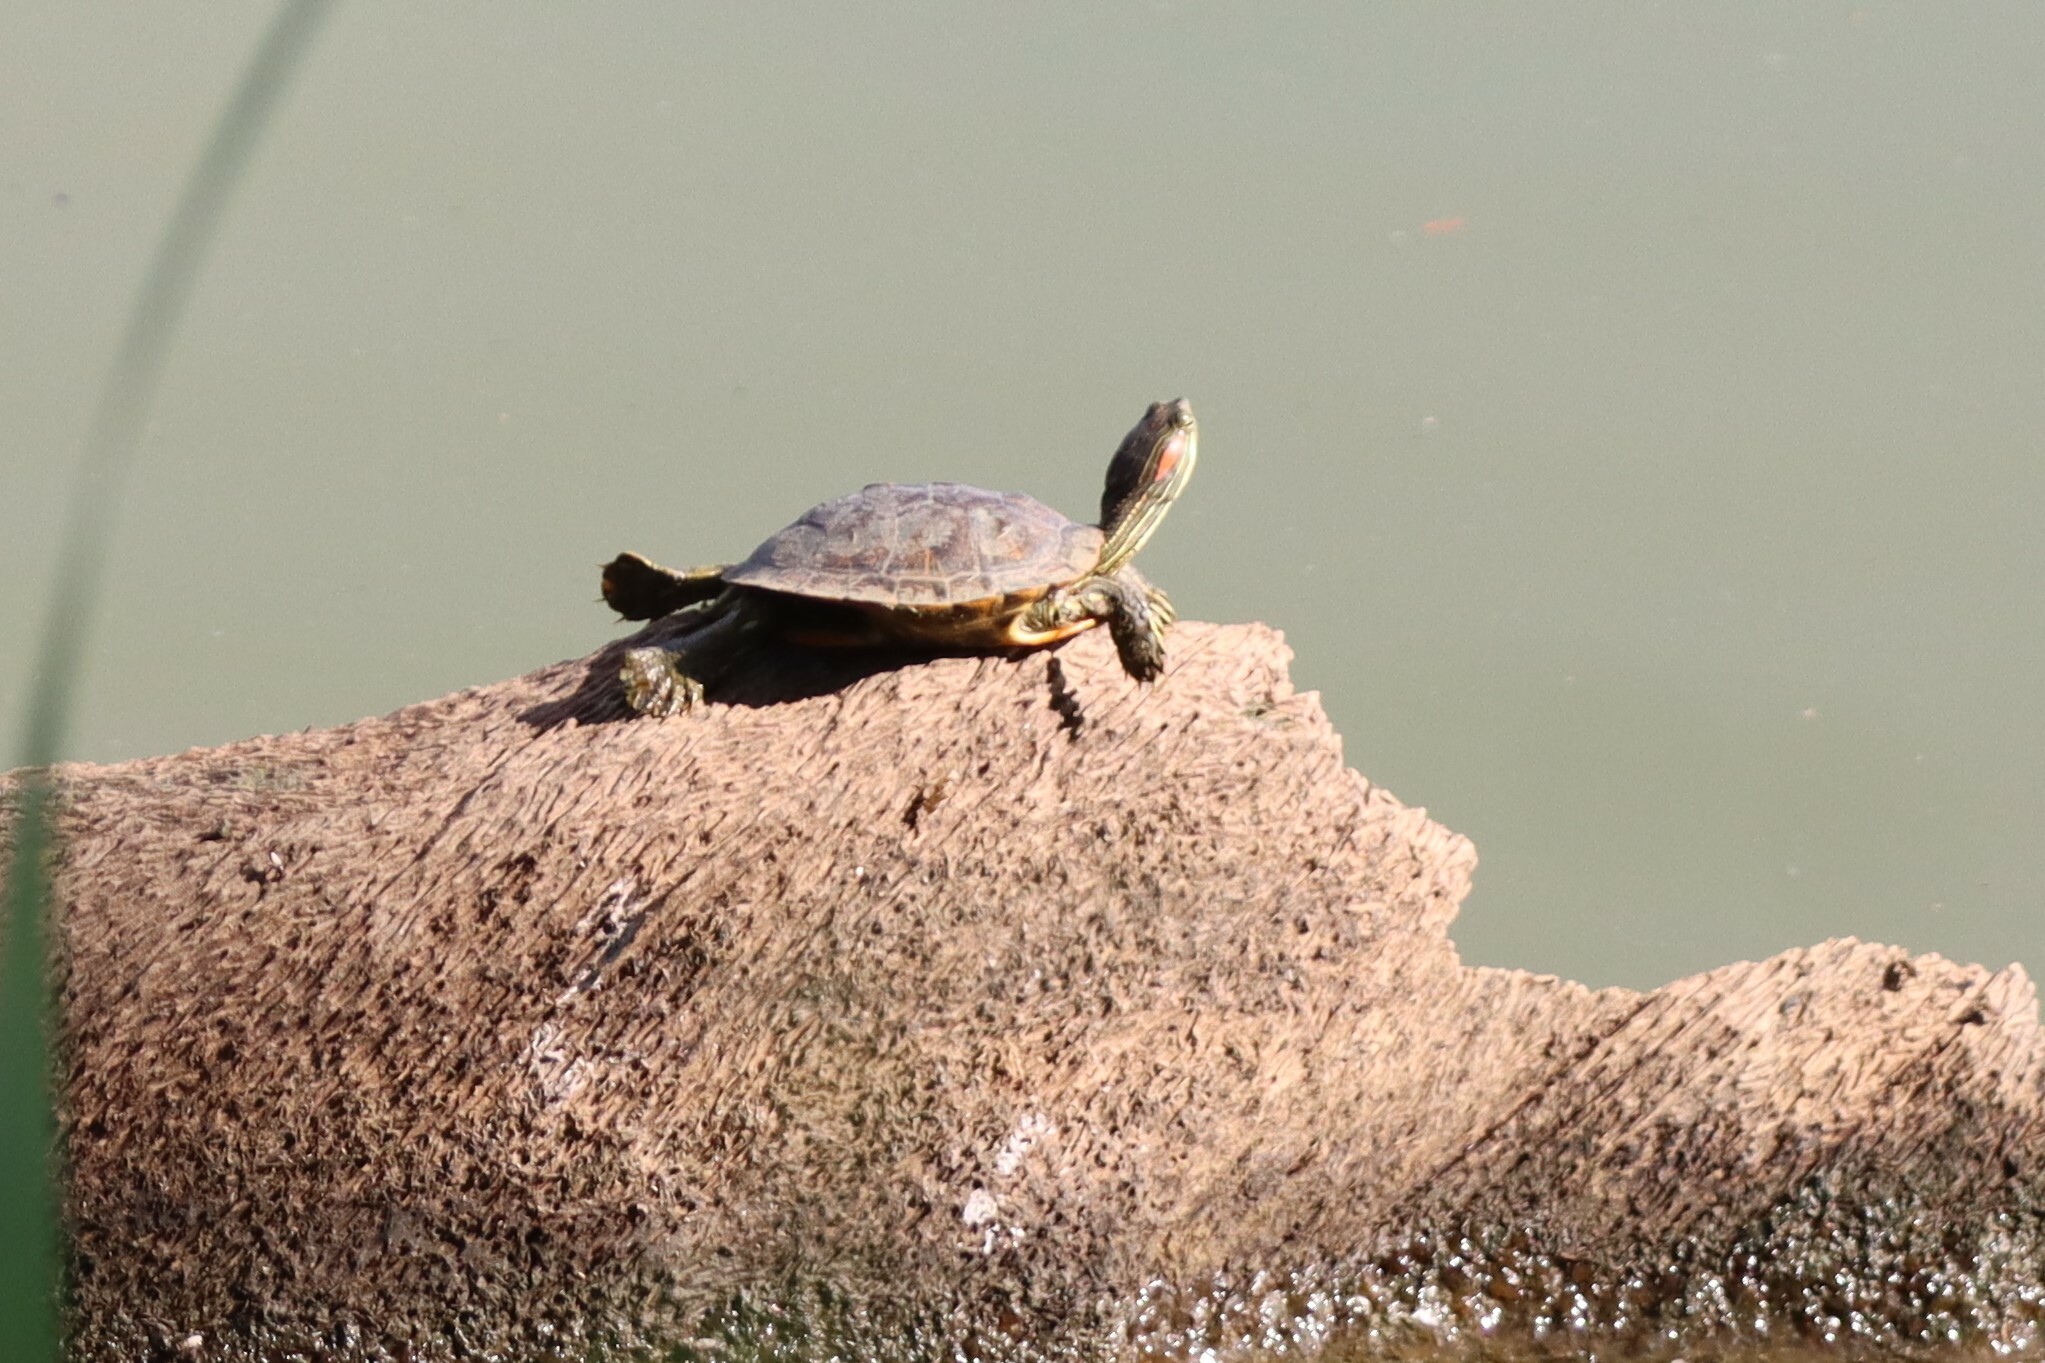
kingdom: Animalia
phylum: Chordata
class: Testudines
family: Emydidae
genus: Trachemys
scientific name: Trachemys scripta
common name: Slider
